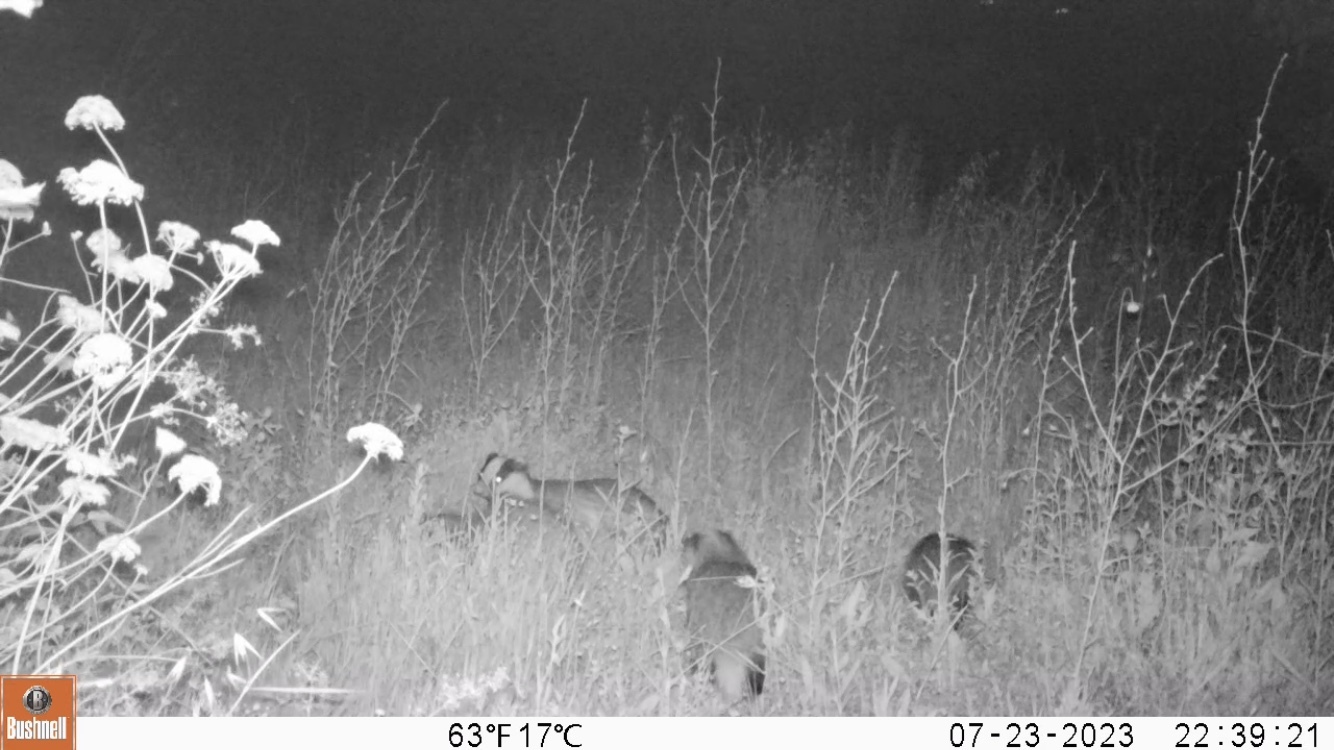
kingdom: Animalia
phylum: Chordata
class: Mammalia
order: Carnivora
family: Mustelidae
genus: Meles
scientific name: Meles meles
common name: Eurasian badger
